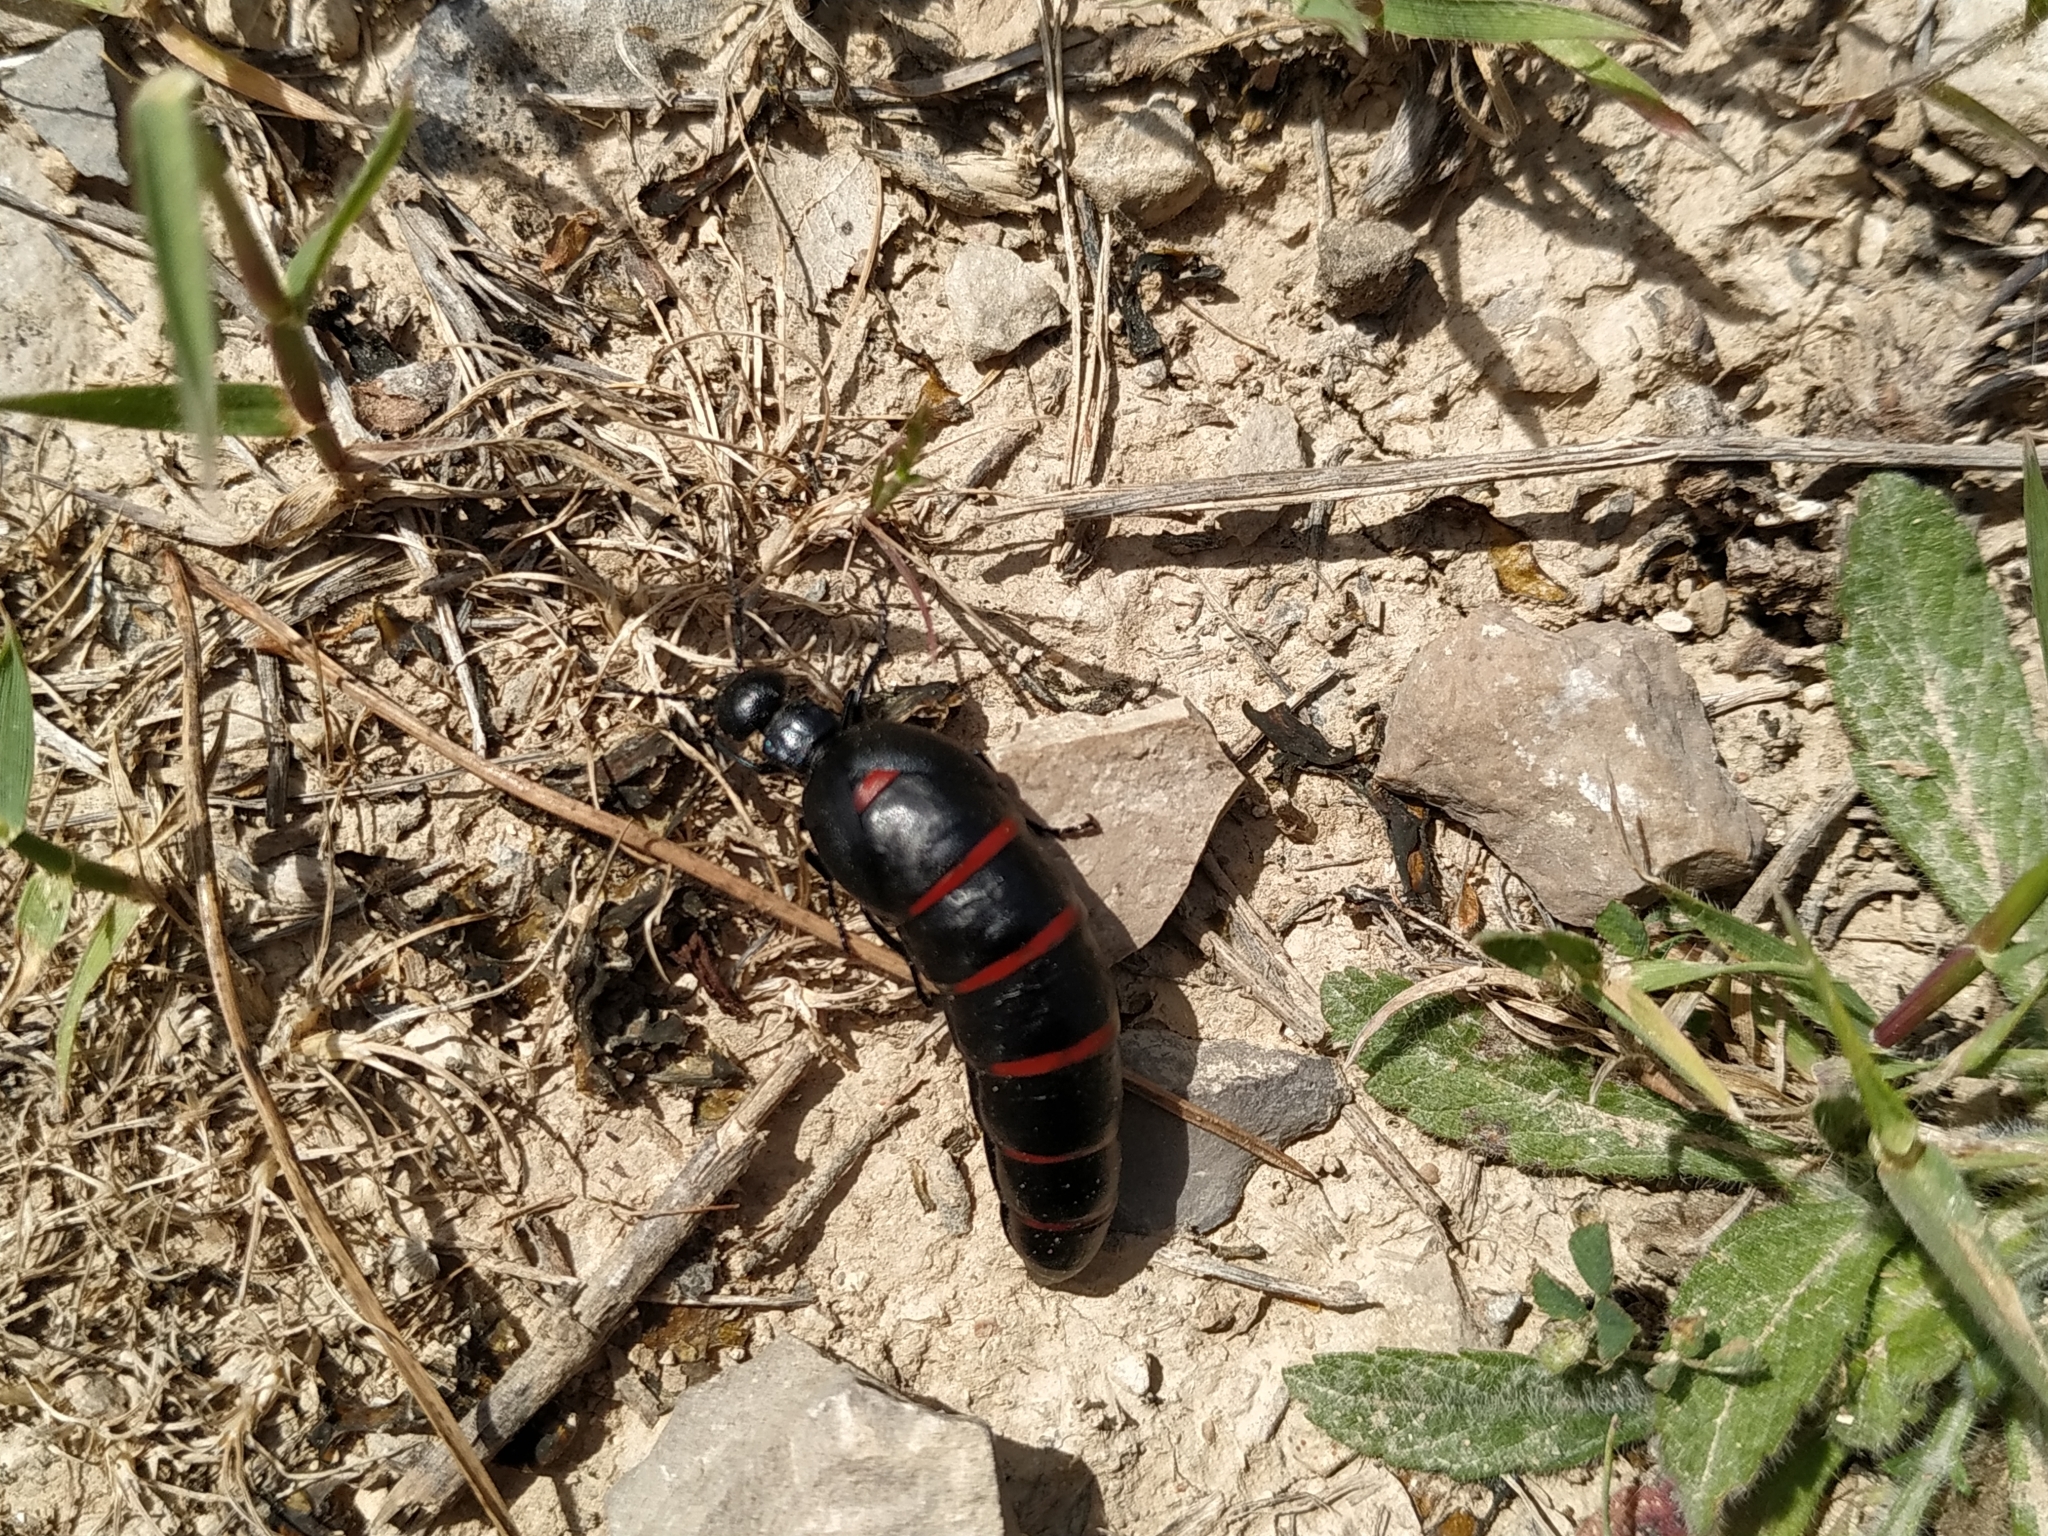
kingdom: Animalia
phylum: Arthropoda
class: Insecta
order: Coleoptera
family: Meloidae
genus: Berberomeloe
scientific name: Berberomeloe majalis
